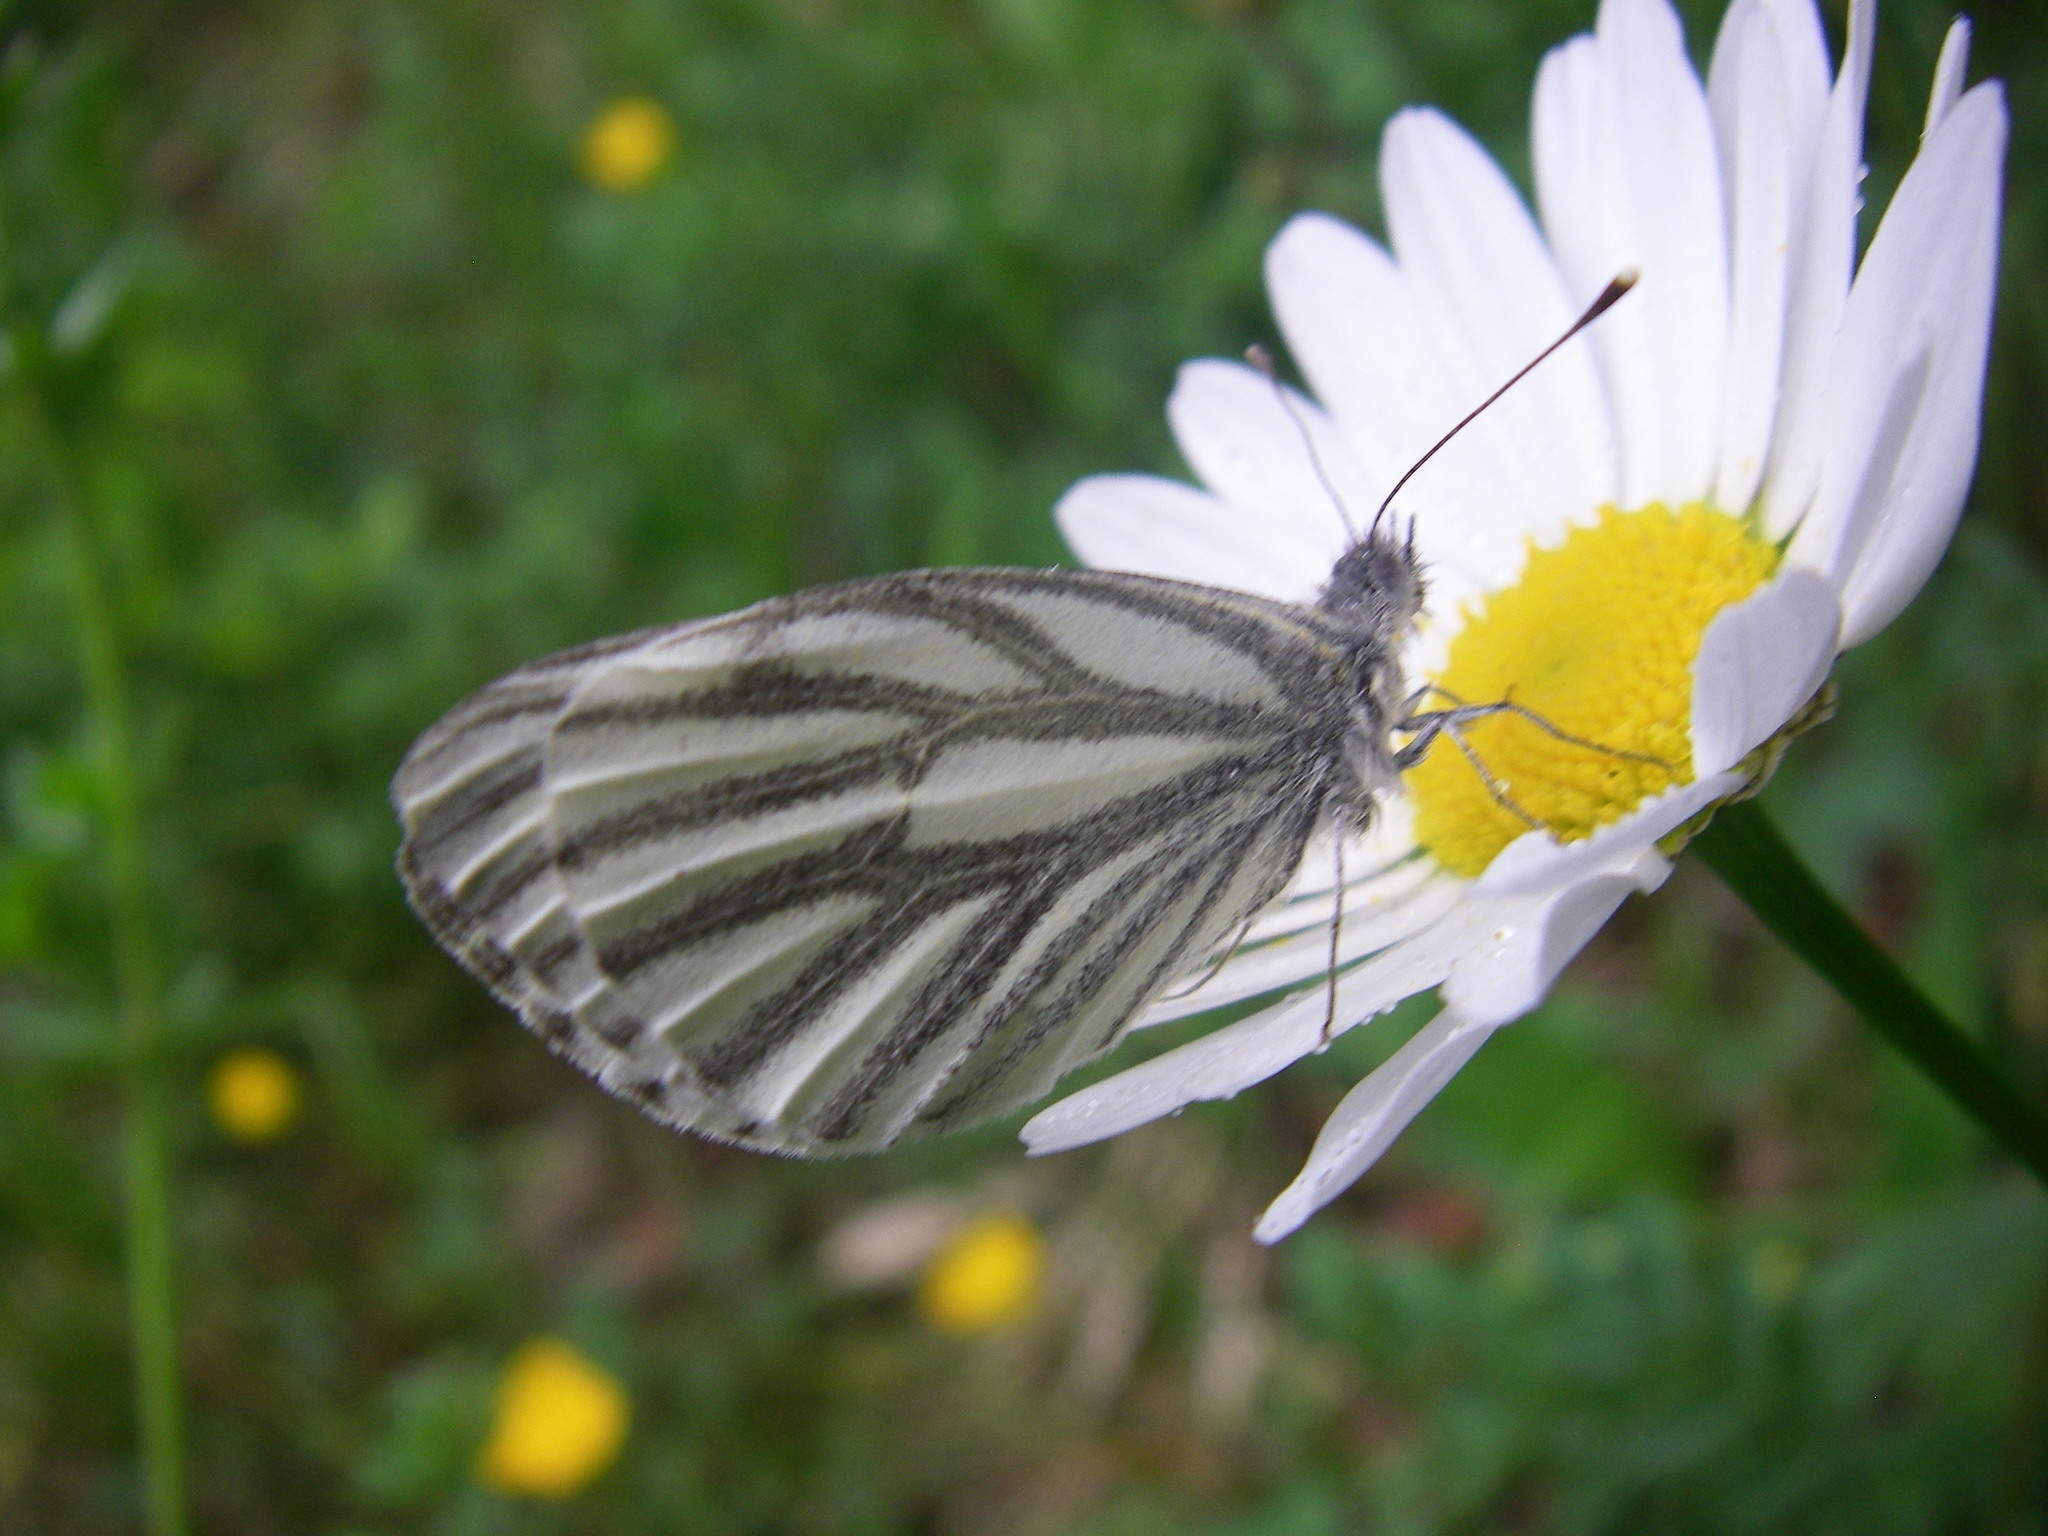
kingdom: Animalia
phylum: Arthropoda
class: Insecta
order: Lepidoptera
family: Pieridae
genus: Pieris
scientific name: Pieris napi
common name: Green-veined white
